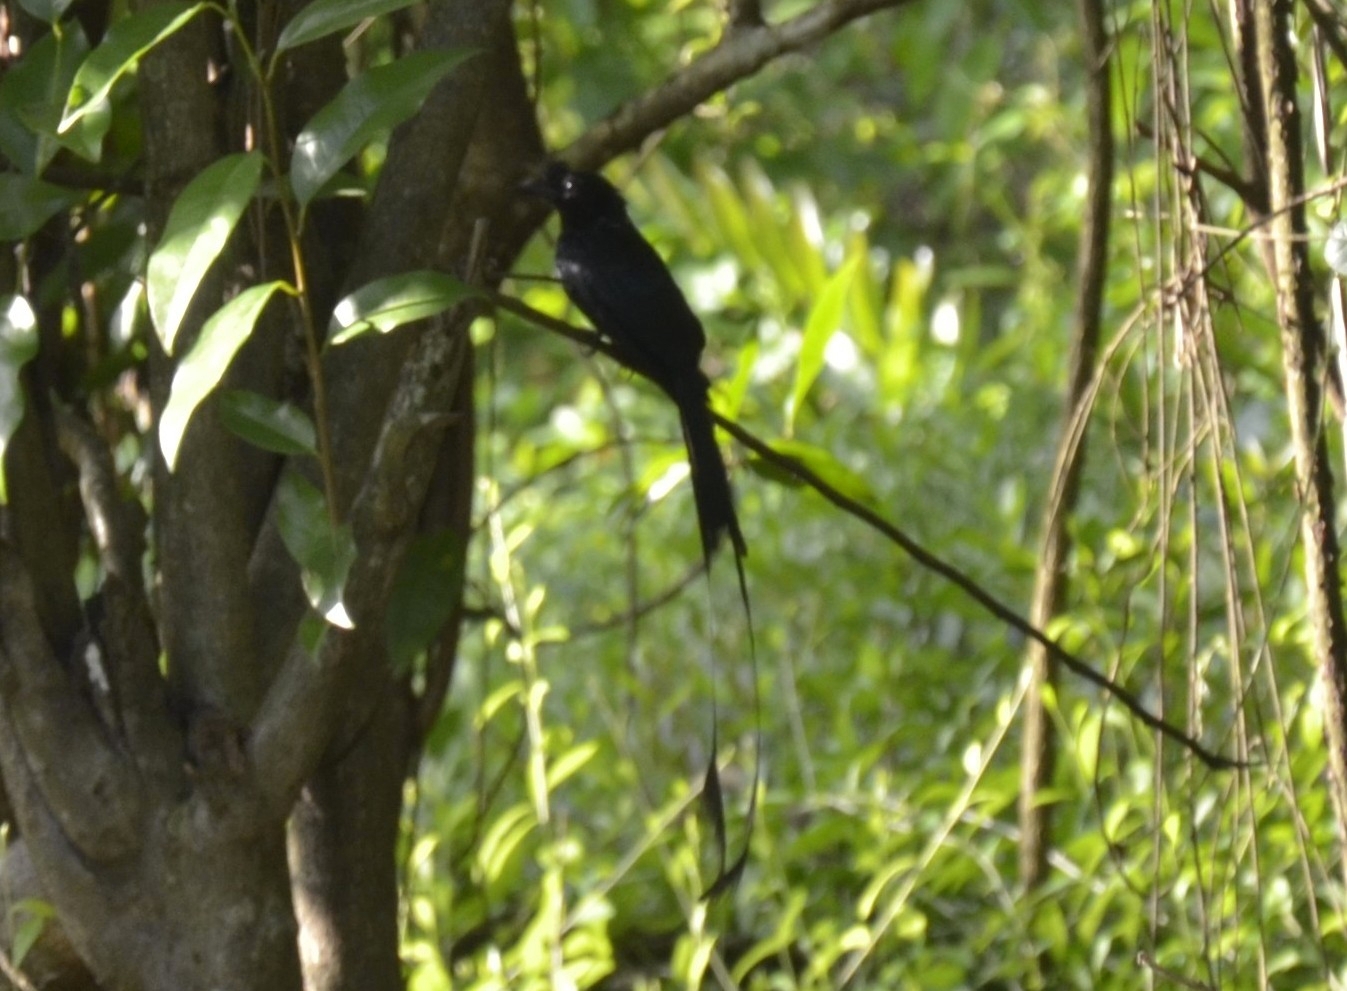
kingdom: Animalia
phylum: Chordata
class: Aves
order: Passeriformes
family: Dicruridae
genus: Dicrurus
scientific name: Dicrurus paradiseus
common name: Greater racket-tailed drongo
